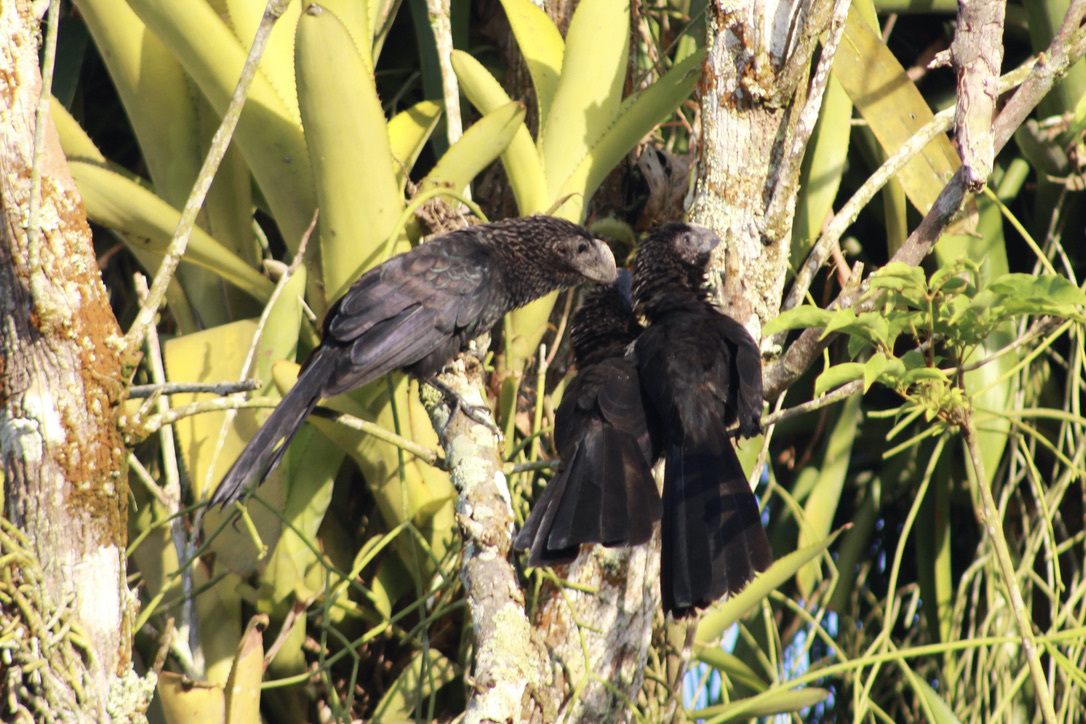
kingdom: Animalia
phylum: Chordata
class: Aves
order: Cuculiformes
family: Cuculidae
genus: Crotophaga
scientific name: Crotophaga ani
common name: Smooth-billed ani
